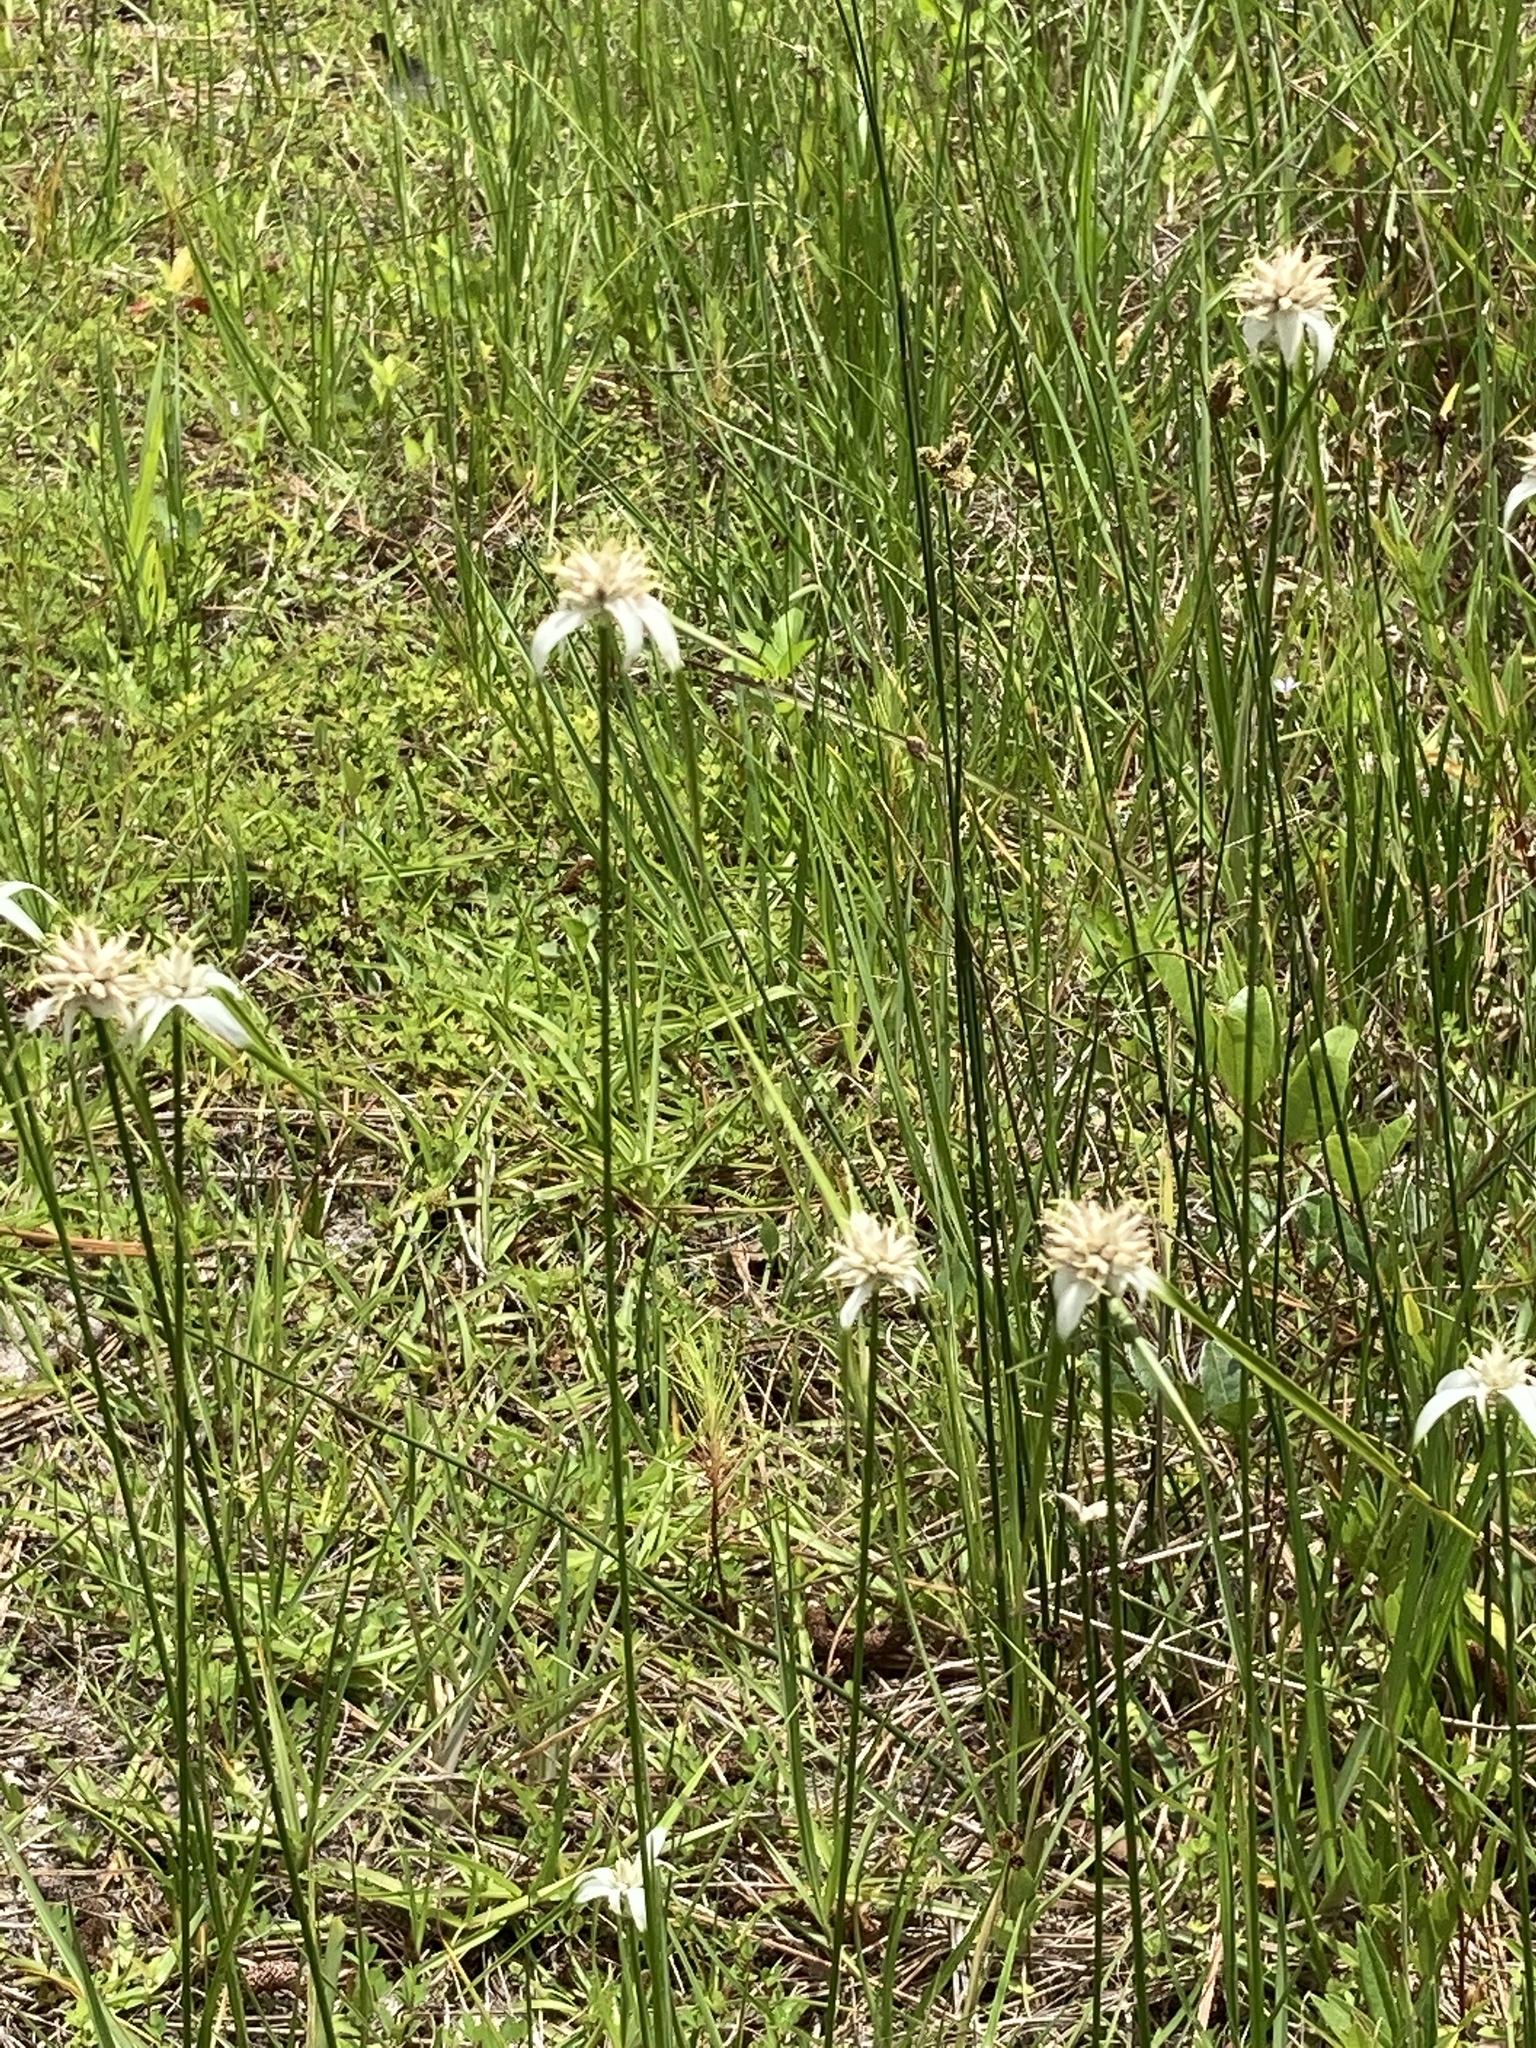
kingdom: Plantae
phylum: Tracheophyta
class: Liliopsida
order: Poales
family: Cyperaceae
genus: Rhynchospora
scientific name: Rhynchospora colorata
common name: Star sedge
